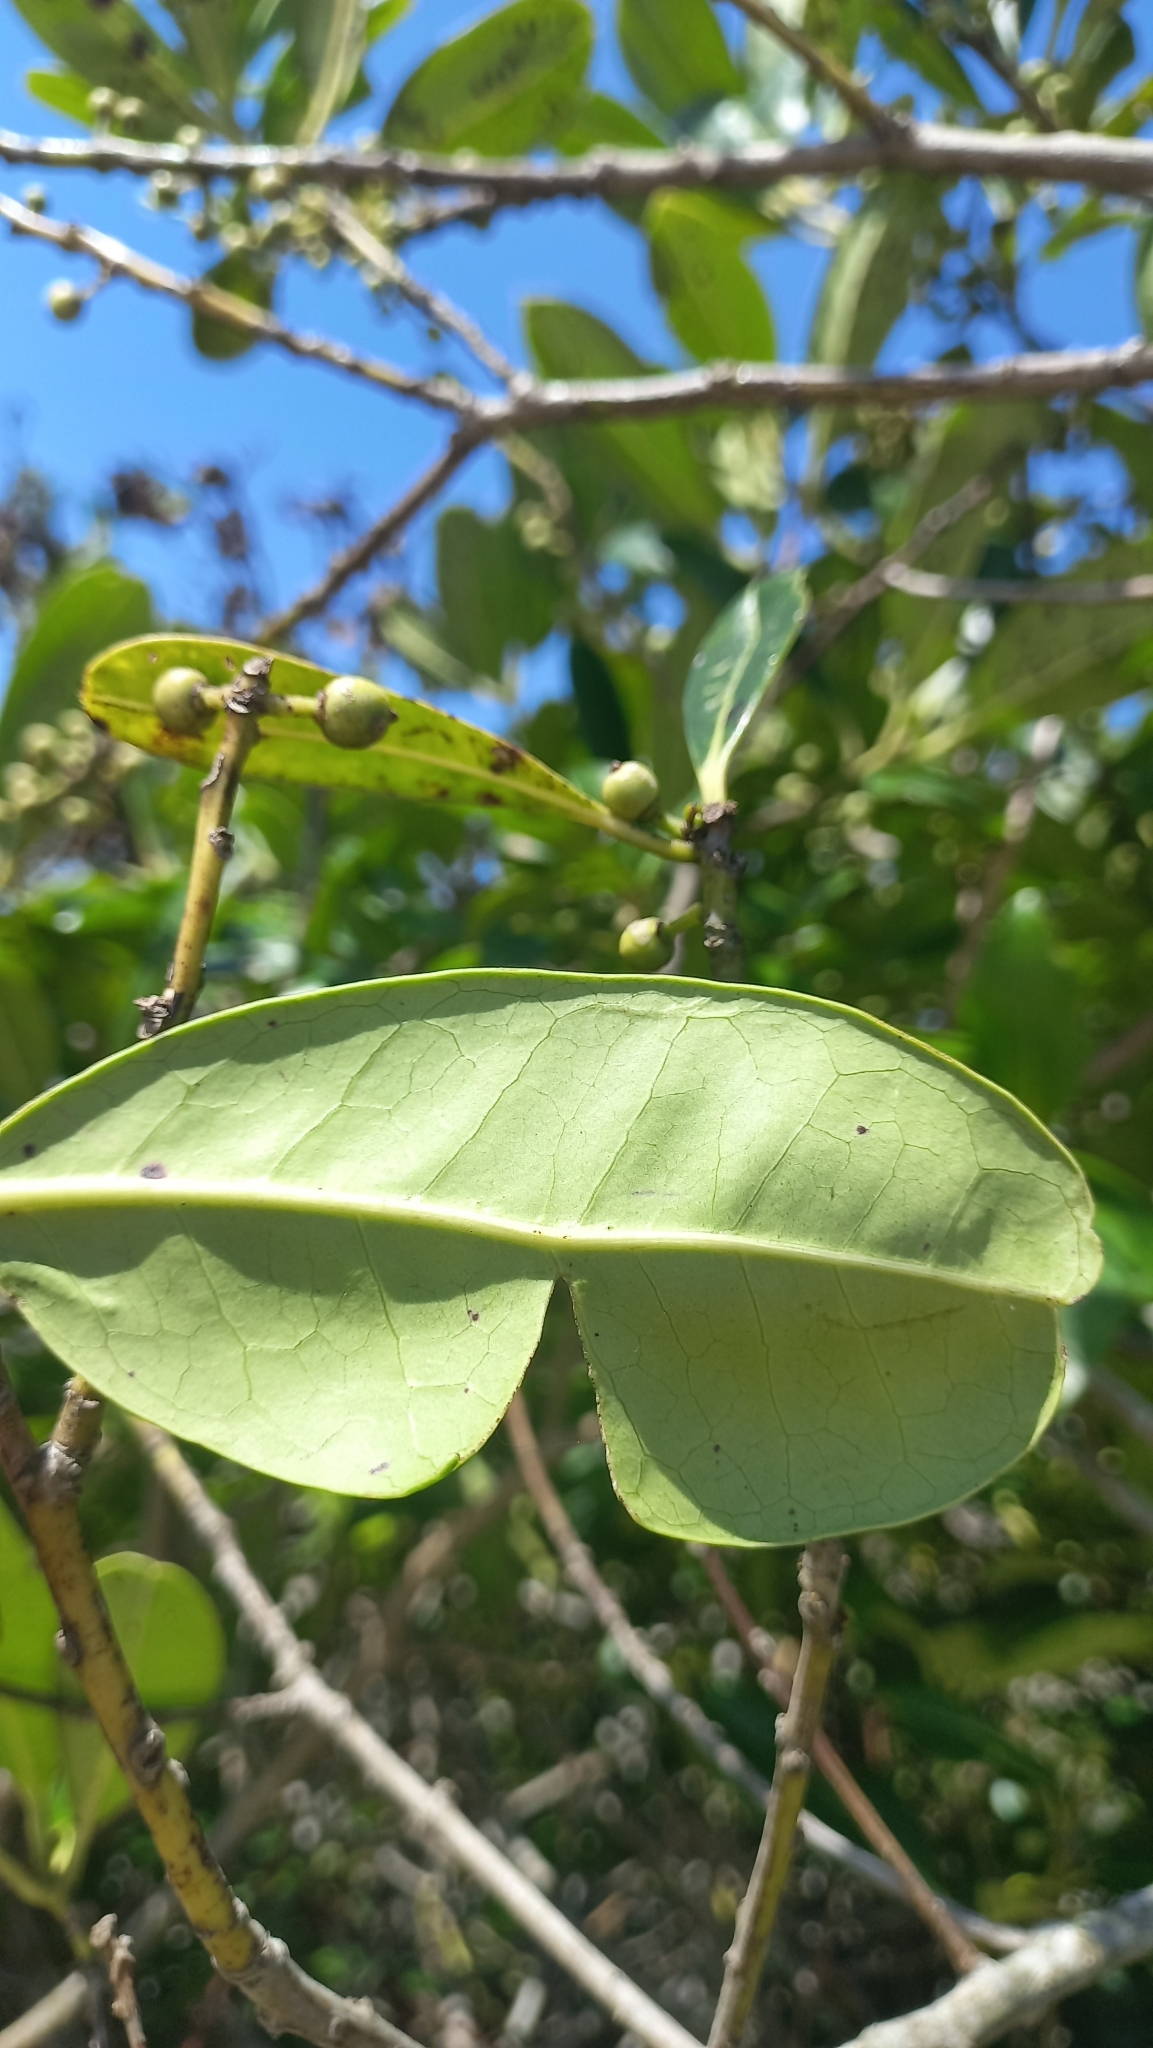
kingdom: Plantae
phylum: Tracheophyta
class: Magnoliopsida
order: Aquifoliales
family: Aquifoliaceae
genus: Ilex
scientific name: Ilex theezans
